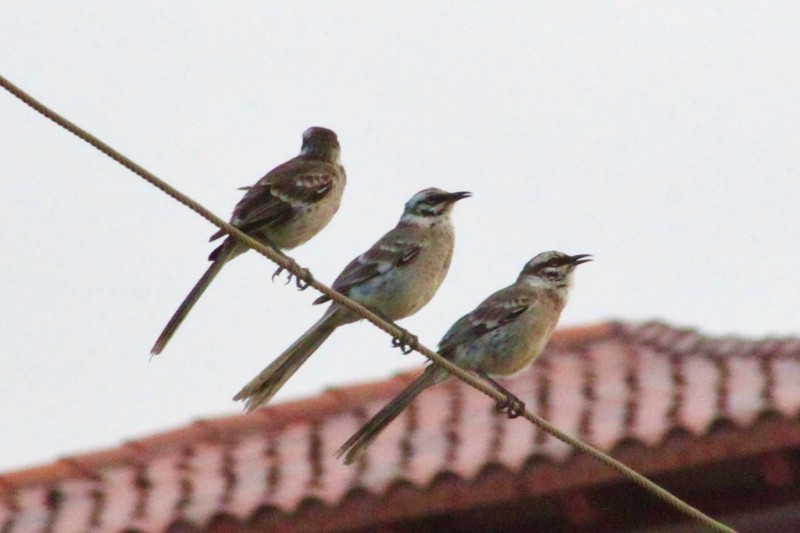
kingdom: Animalia
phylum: Chordata
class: Aves
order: Passeriformes
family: Mimidae
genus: Mimus
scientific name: Mimus longicaudatus
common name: Long-tailed mockingbird
